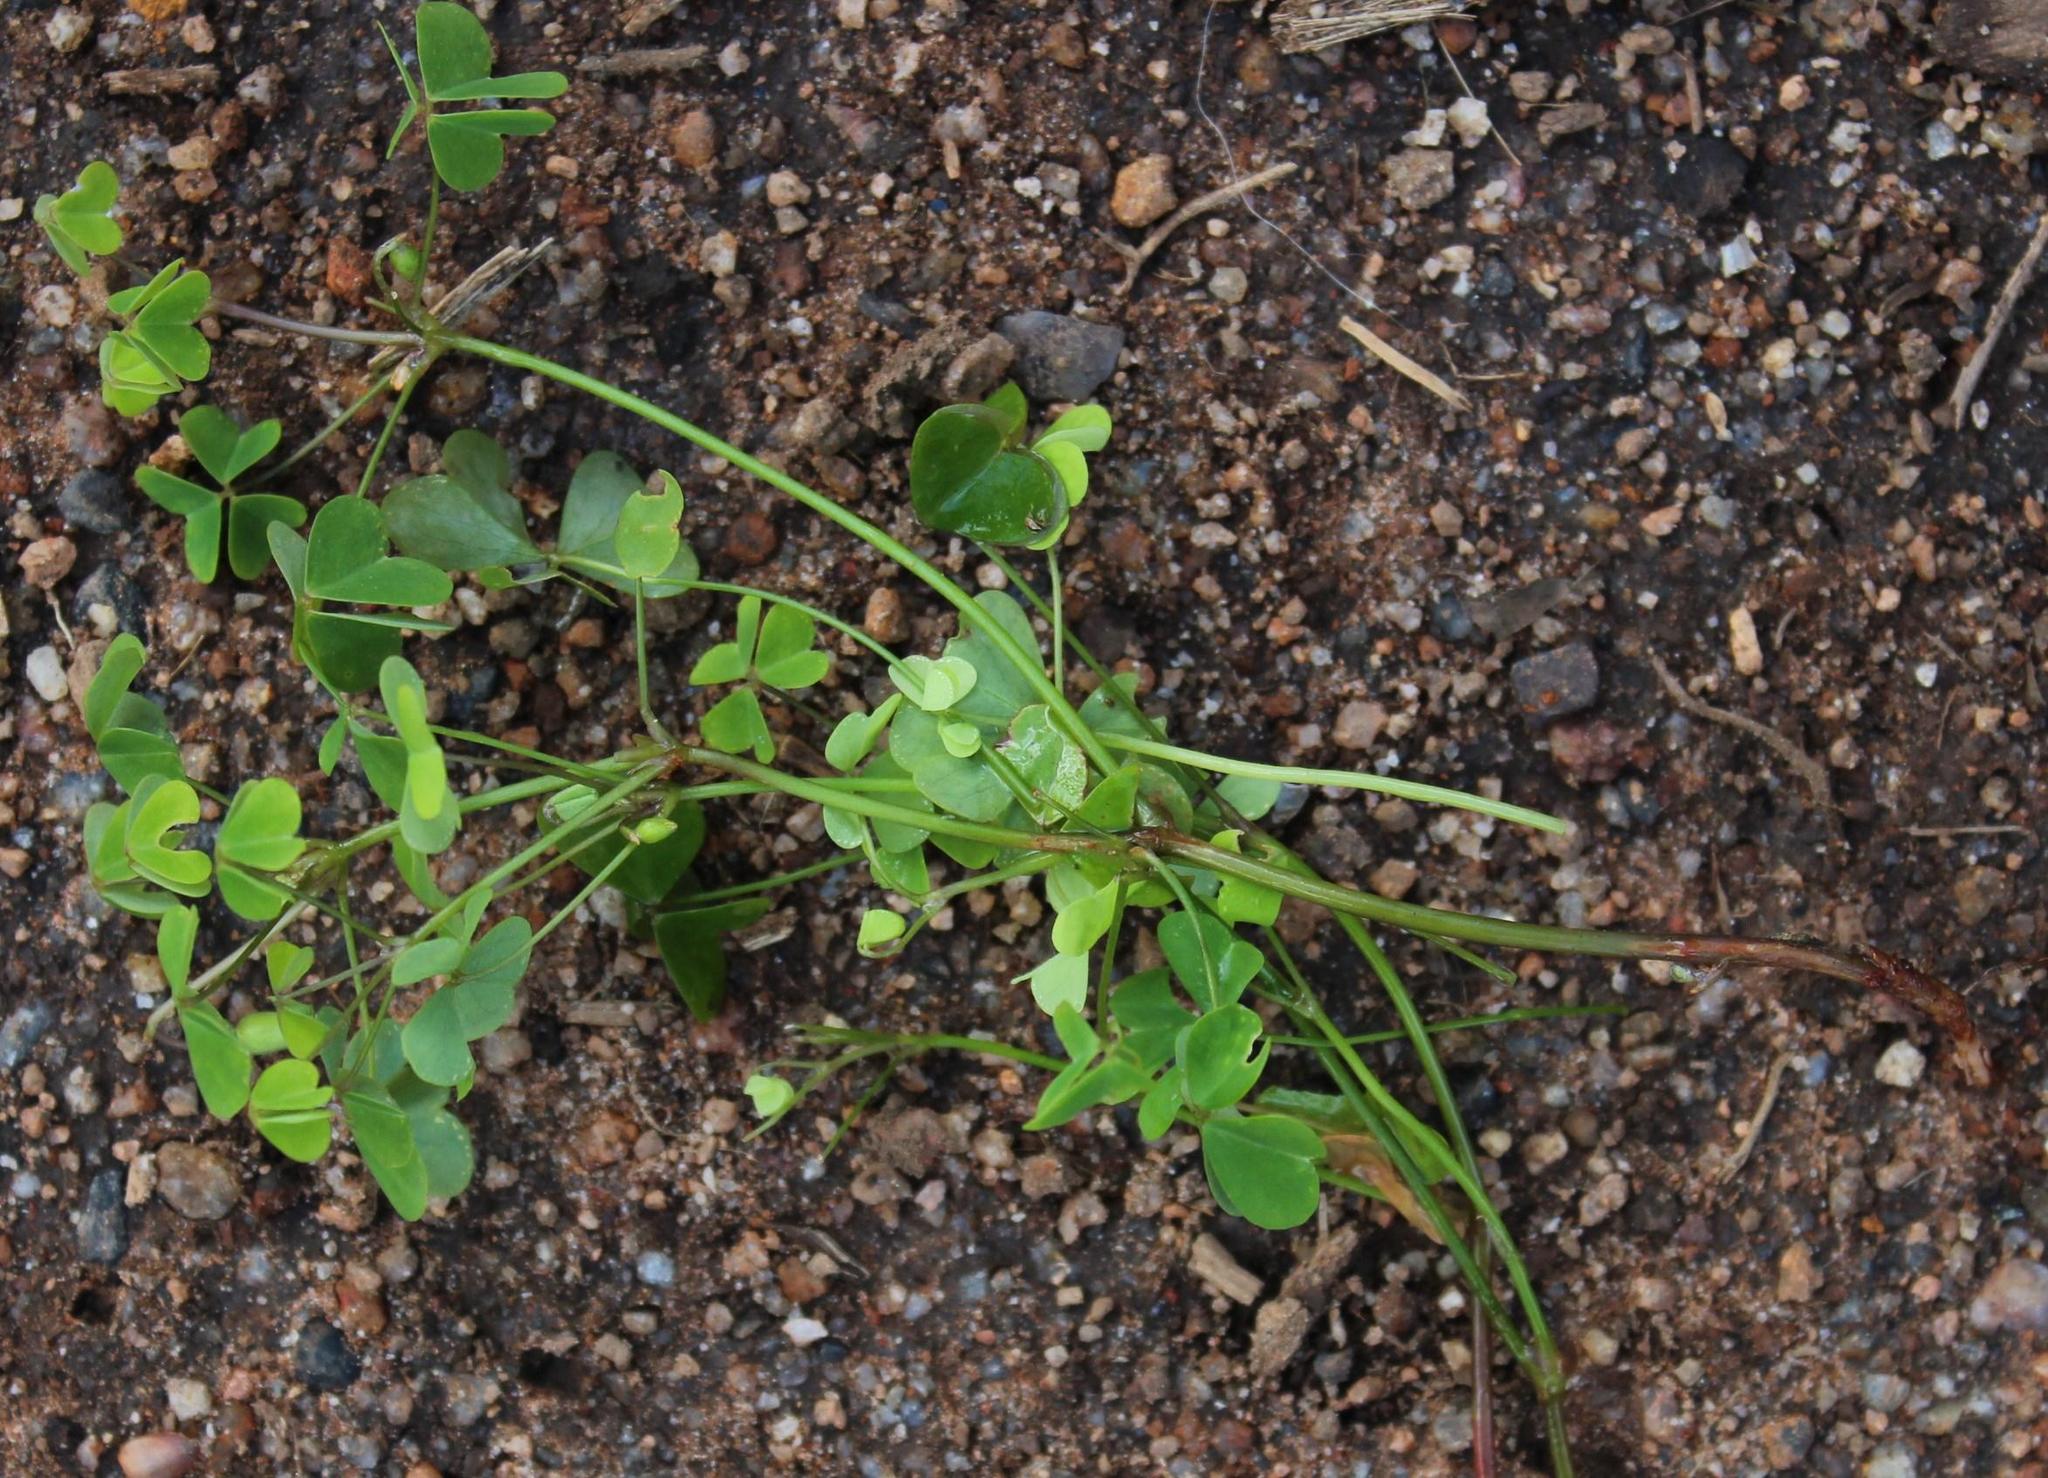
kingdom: Plantae
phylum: Tracheophyta
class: Magnoliopsida
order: Oxalidales
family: Oxalidaceae
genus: Oxalis
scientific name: Oxalis incarnata
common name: Pale pink-sorrel
